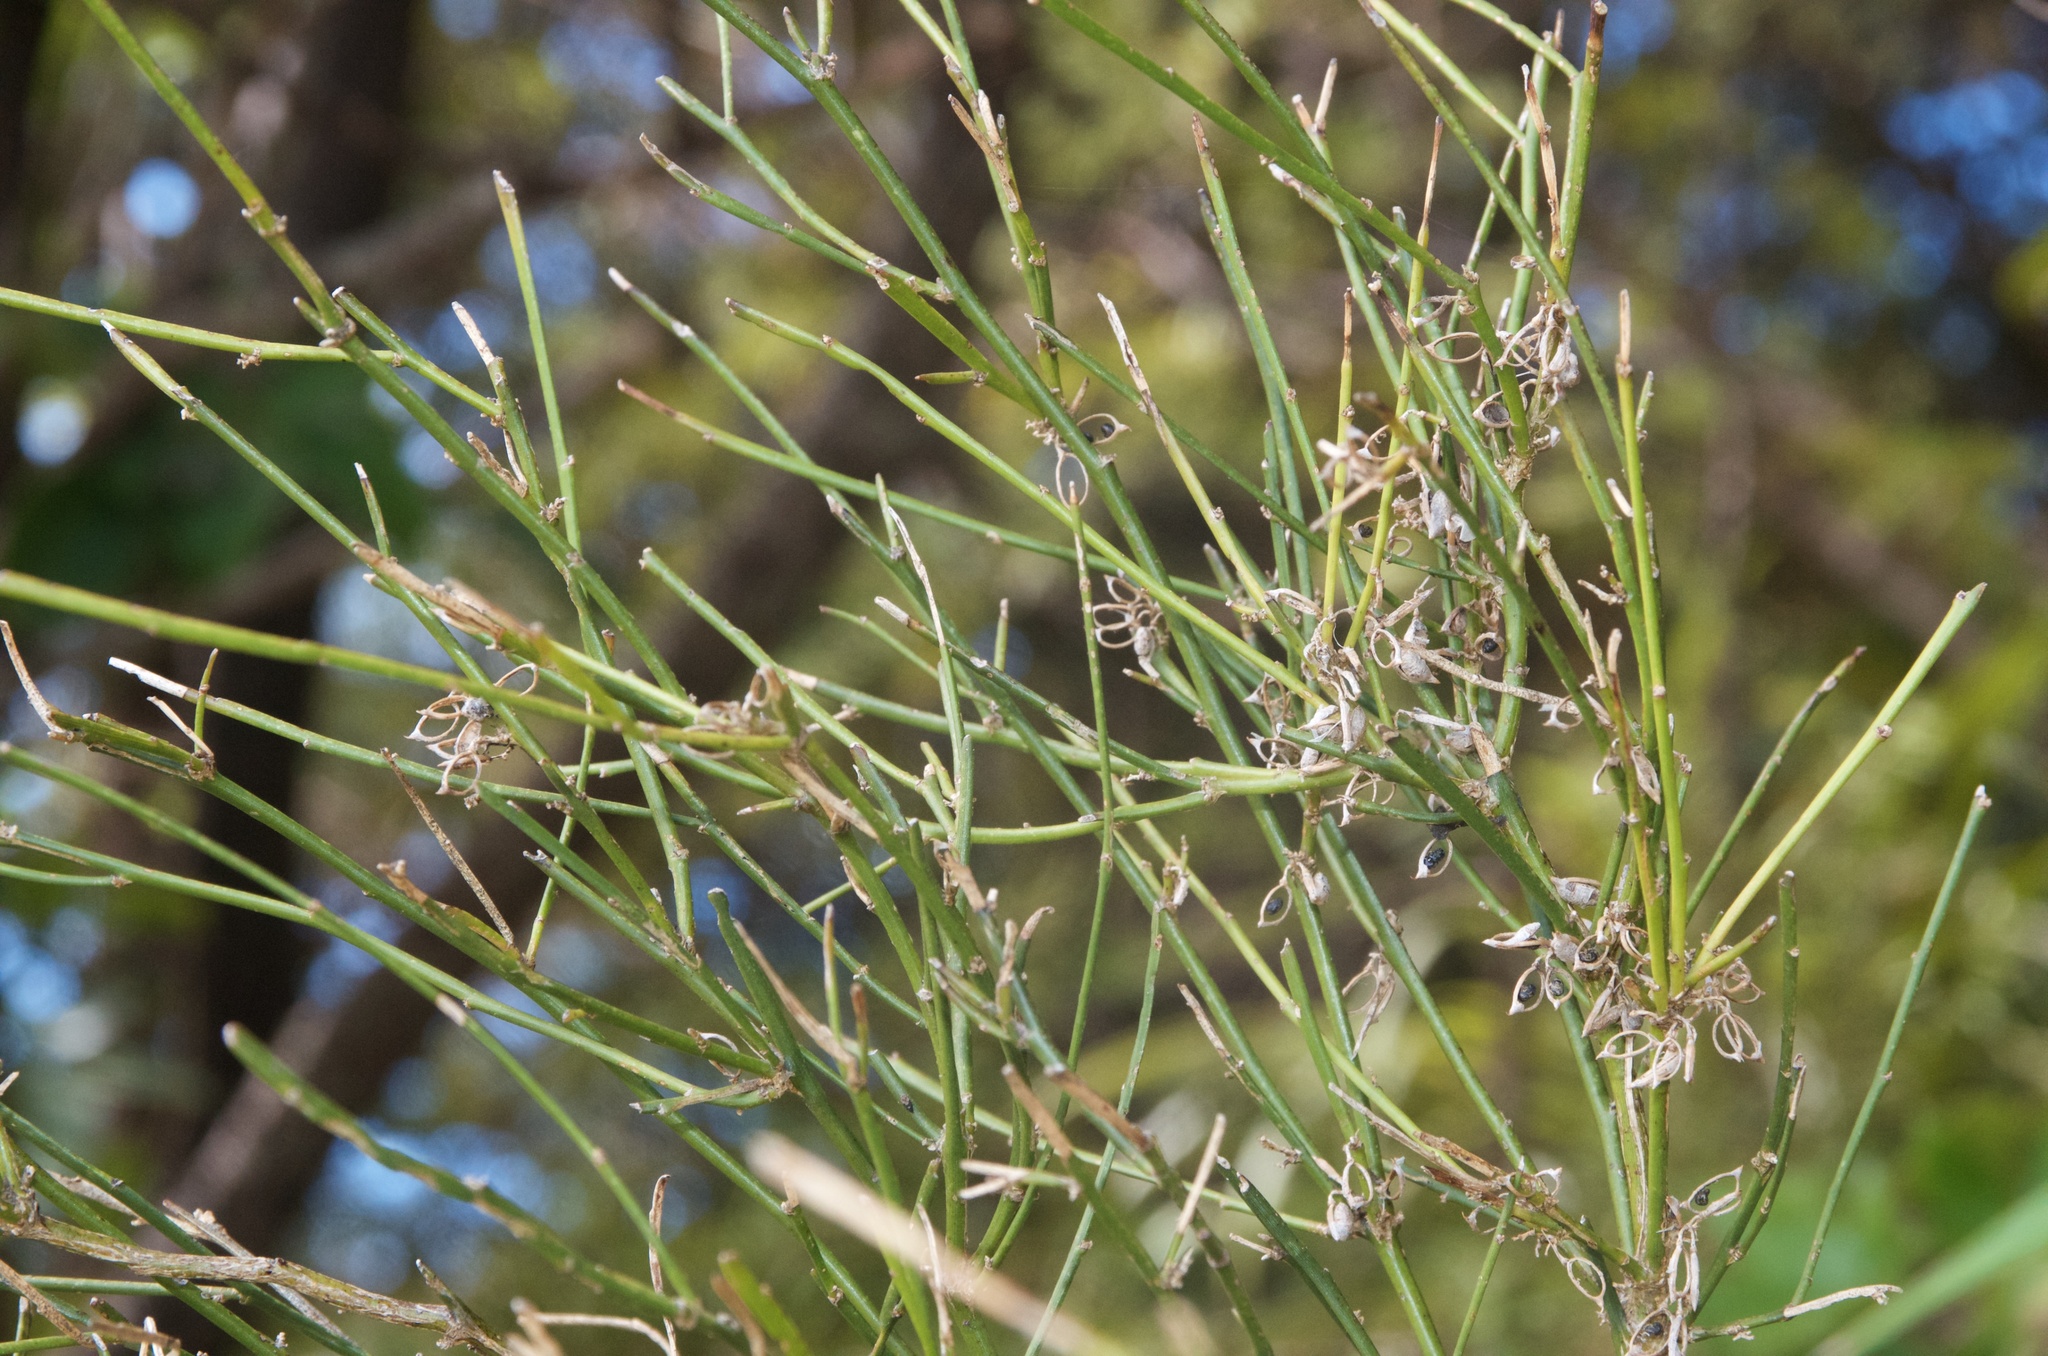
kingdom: Plantae
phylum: Tracheophyta
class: Magnoliopsida
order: Fabales
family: Fabaceae
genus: Carmichaelia
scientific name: Carmichaelia australis
